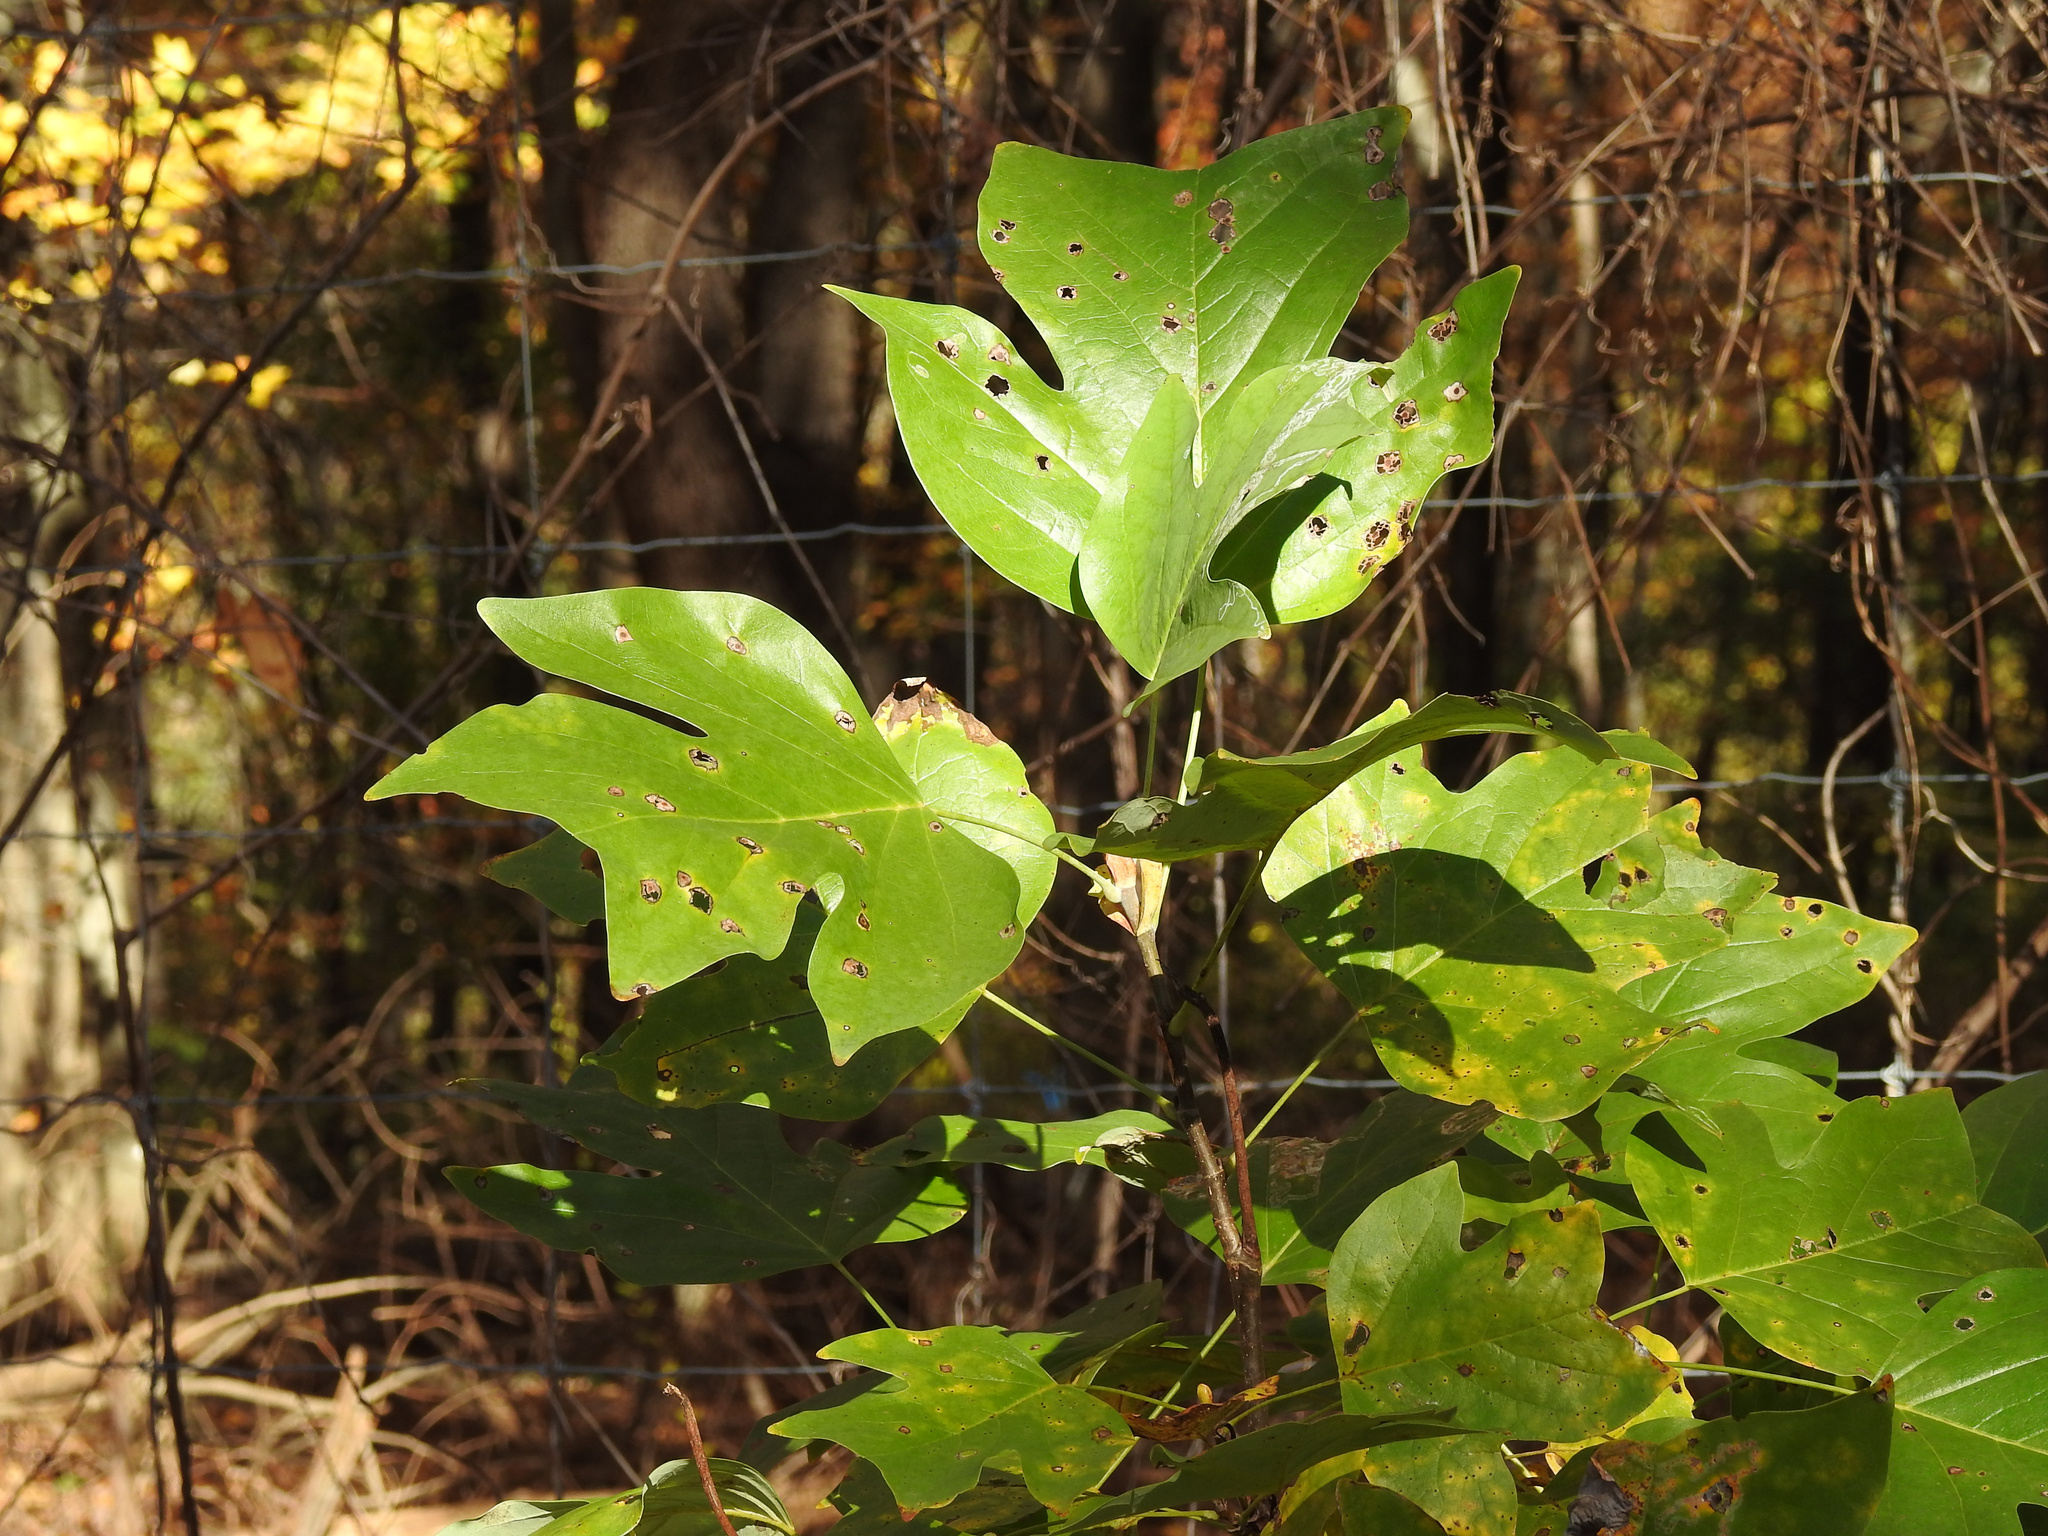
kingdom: Plantae
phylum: Tracheophyta
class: Magnoliopsida
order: Magnoliales
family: Magnoliaceae
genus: Liriodendron
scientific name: Liriodendron tulipifera
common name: Tulip tree
